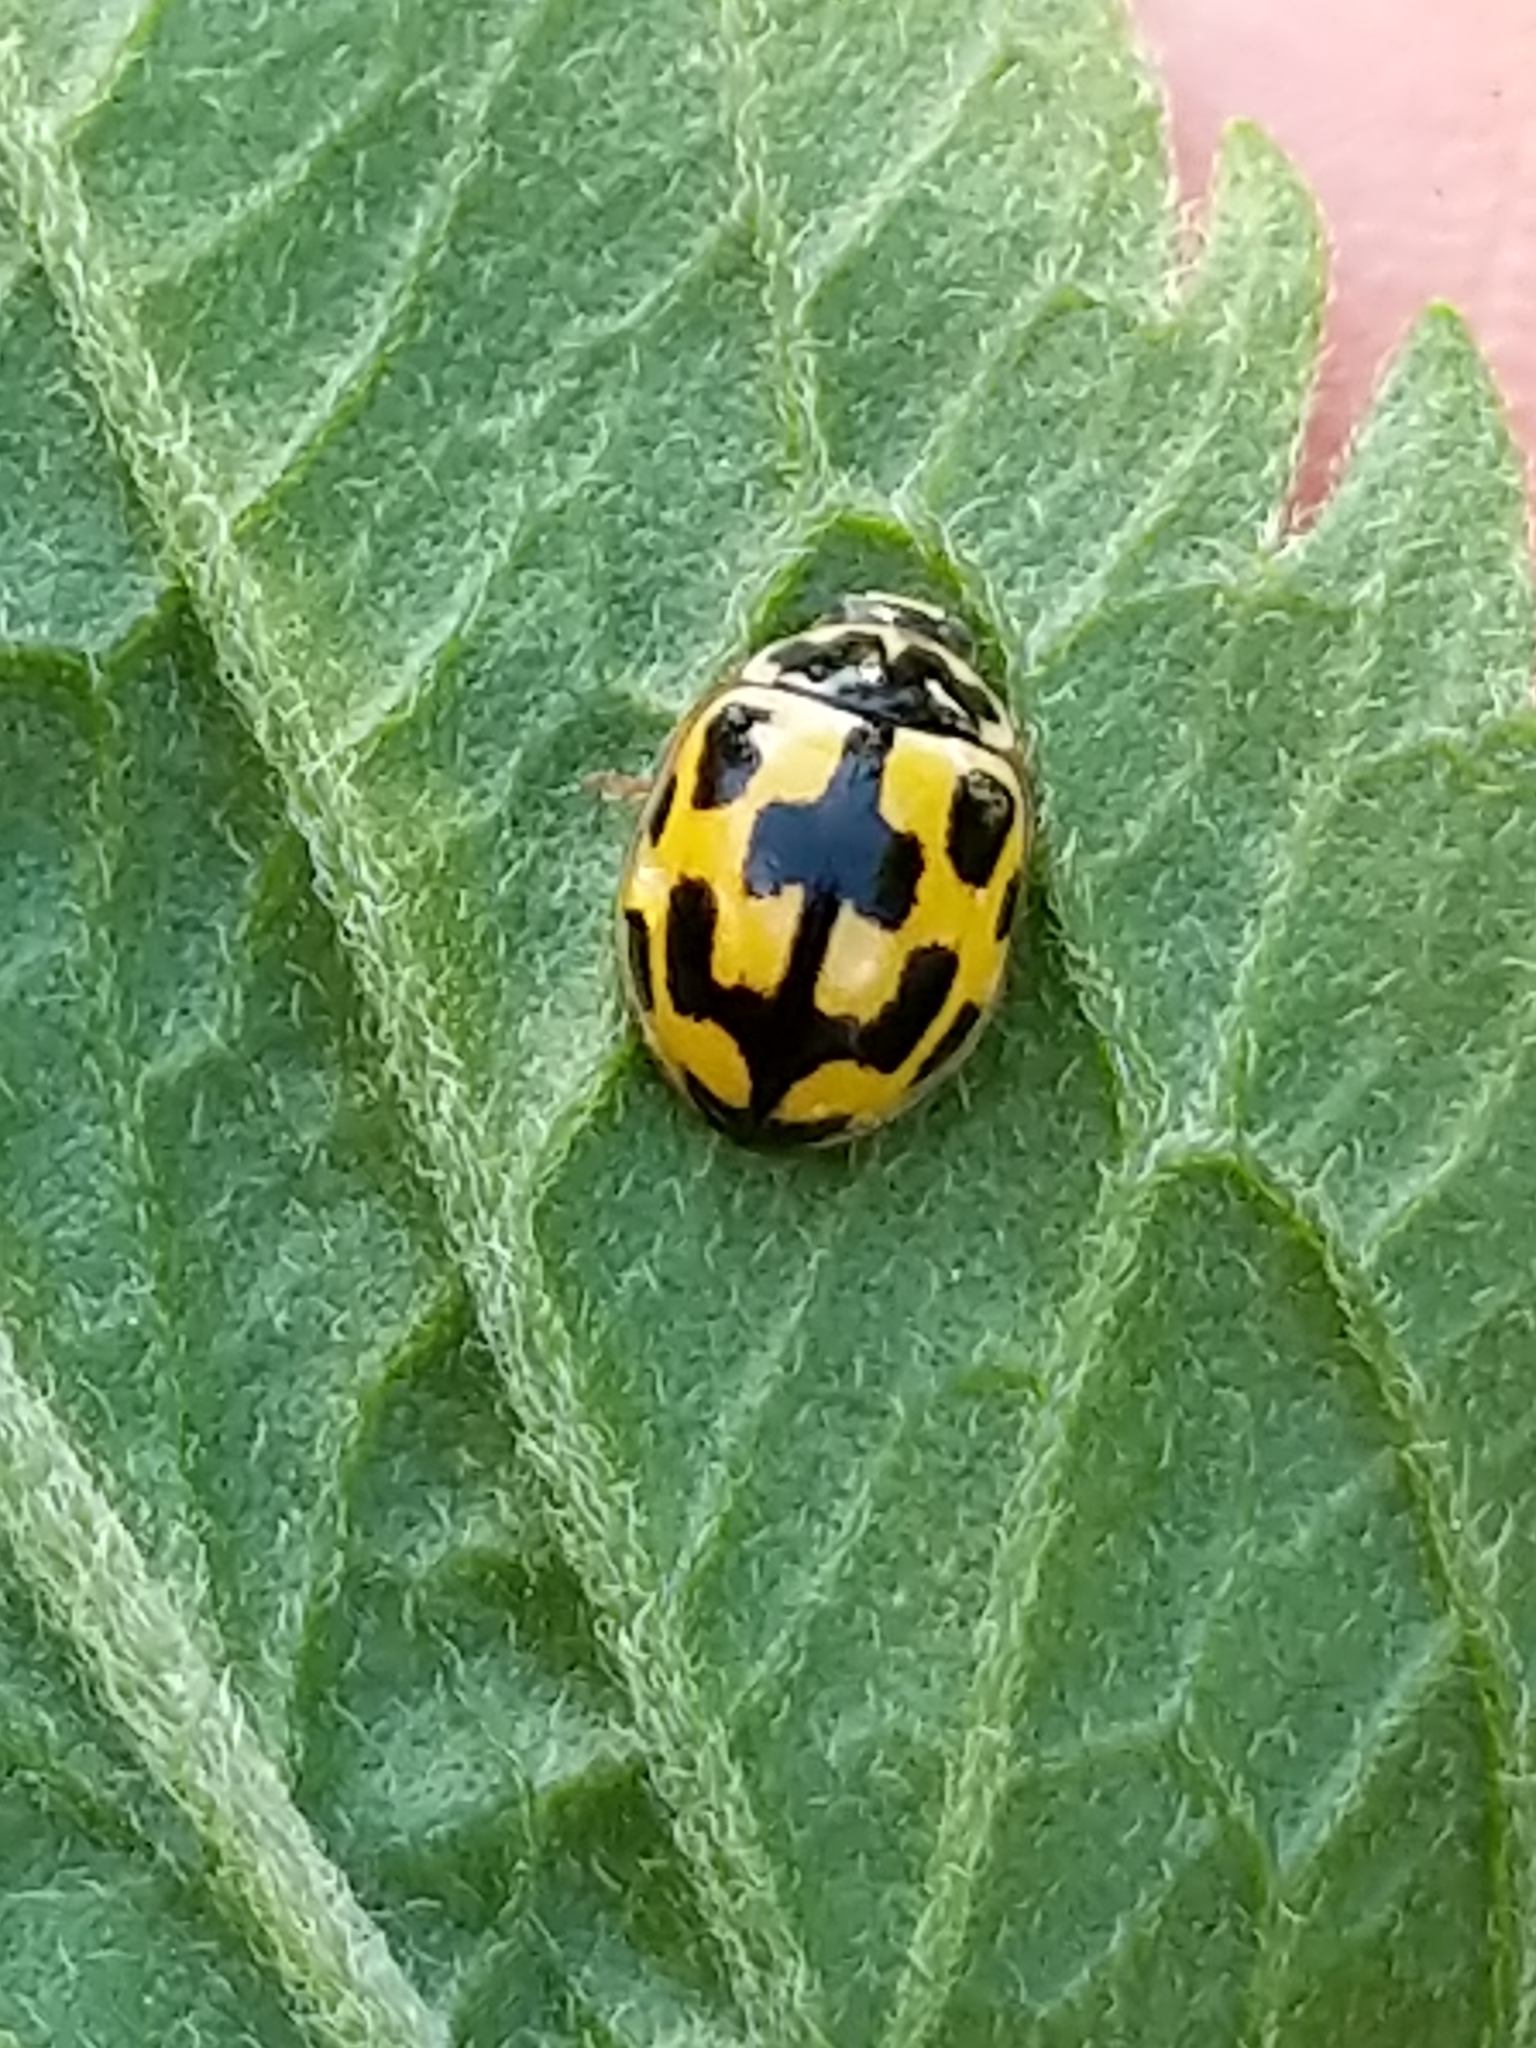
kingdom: Animalia
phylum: Arthropoda
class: Insecta
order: Coleoptera
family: Coccinellidae
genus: Propylaea
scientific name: Propylaea quatuordecimpunctata
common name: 14-spotted ladybird beetle
